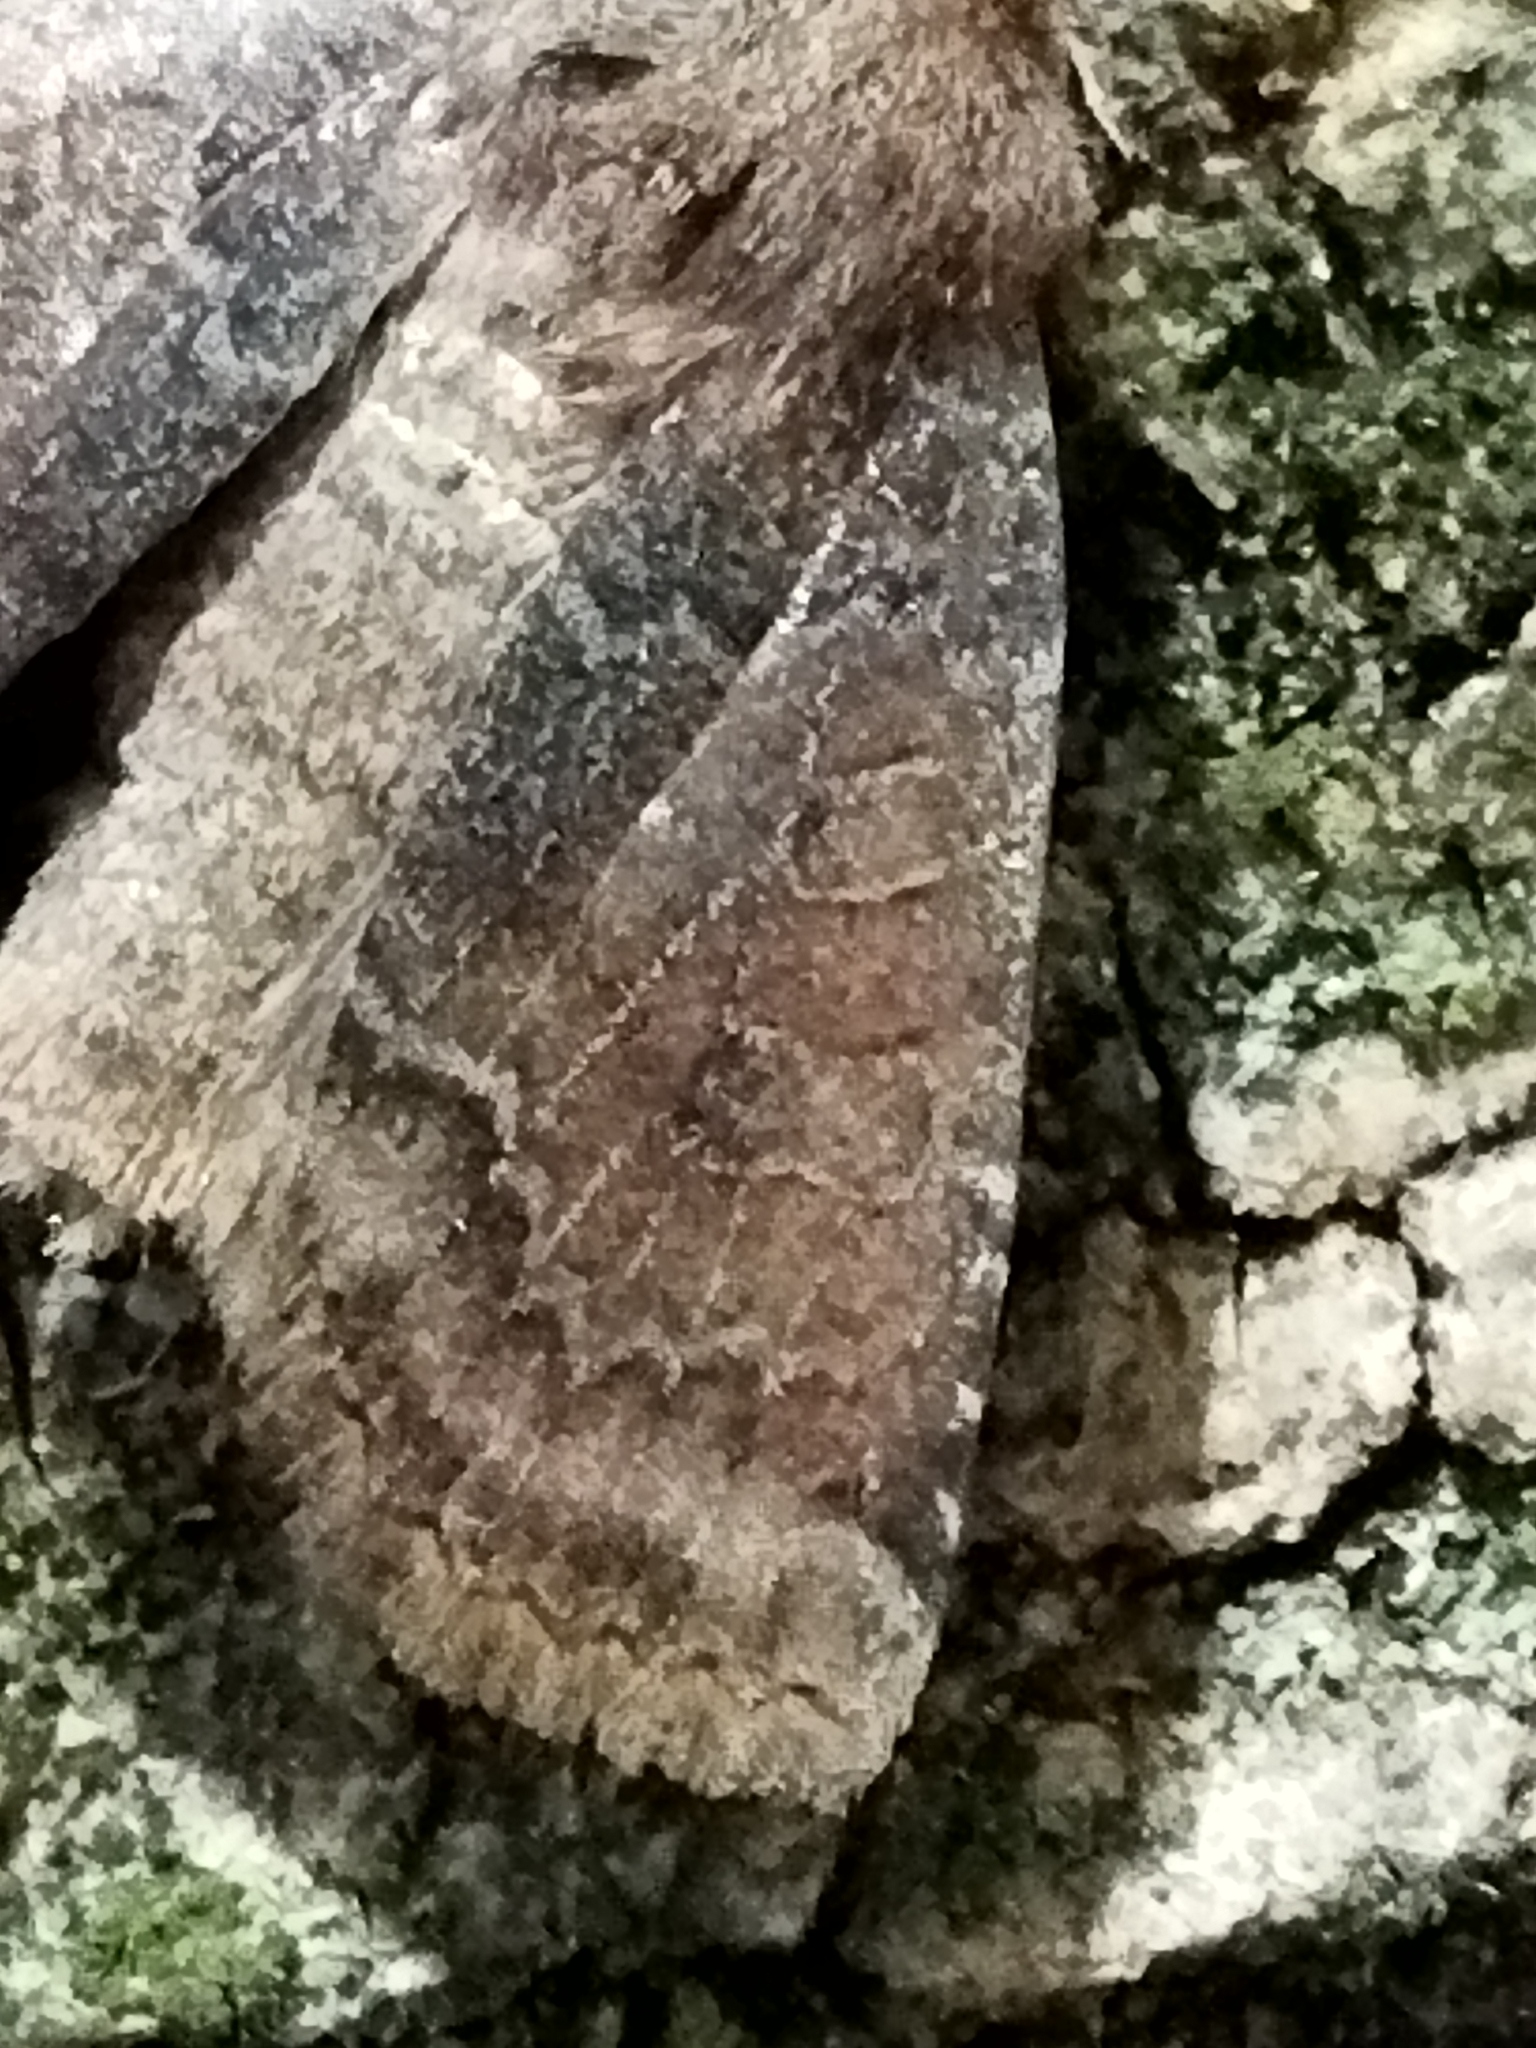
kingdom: Animalia
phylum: Arthropoda
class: Insecta
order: Lepidoptera
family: Noctuidae
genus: Conistra
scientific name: Conistra vaccinii
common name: Chestnut
